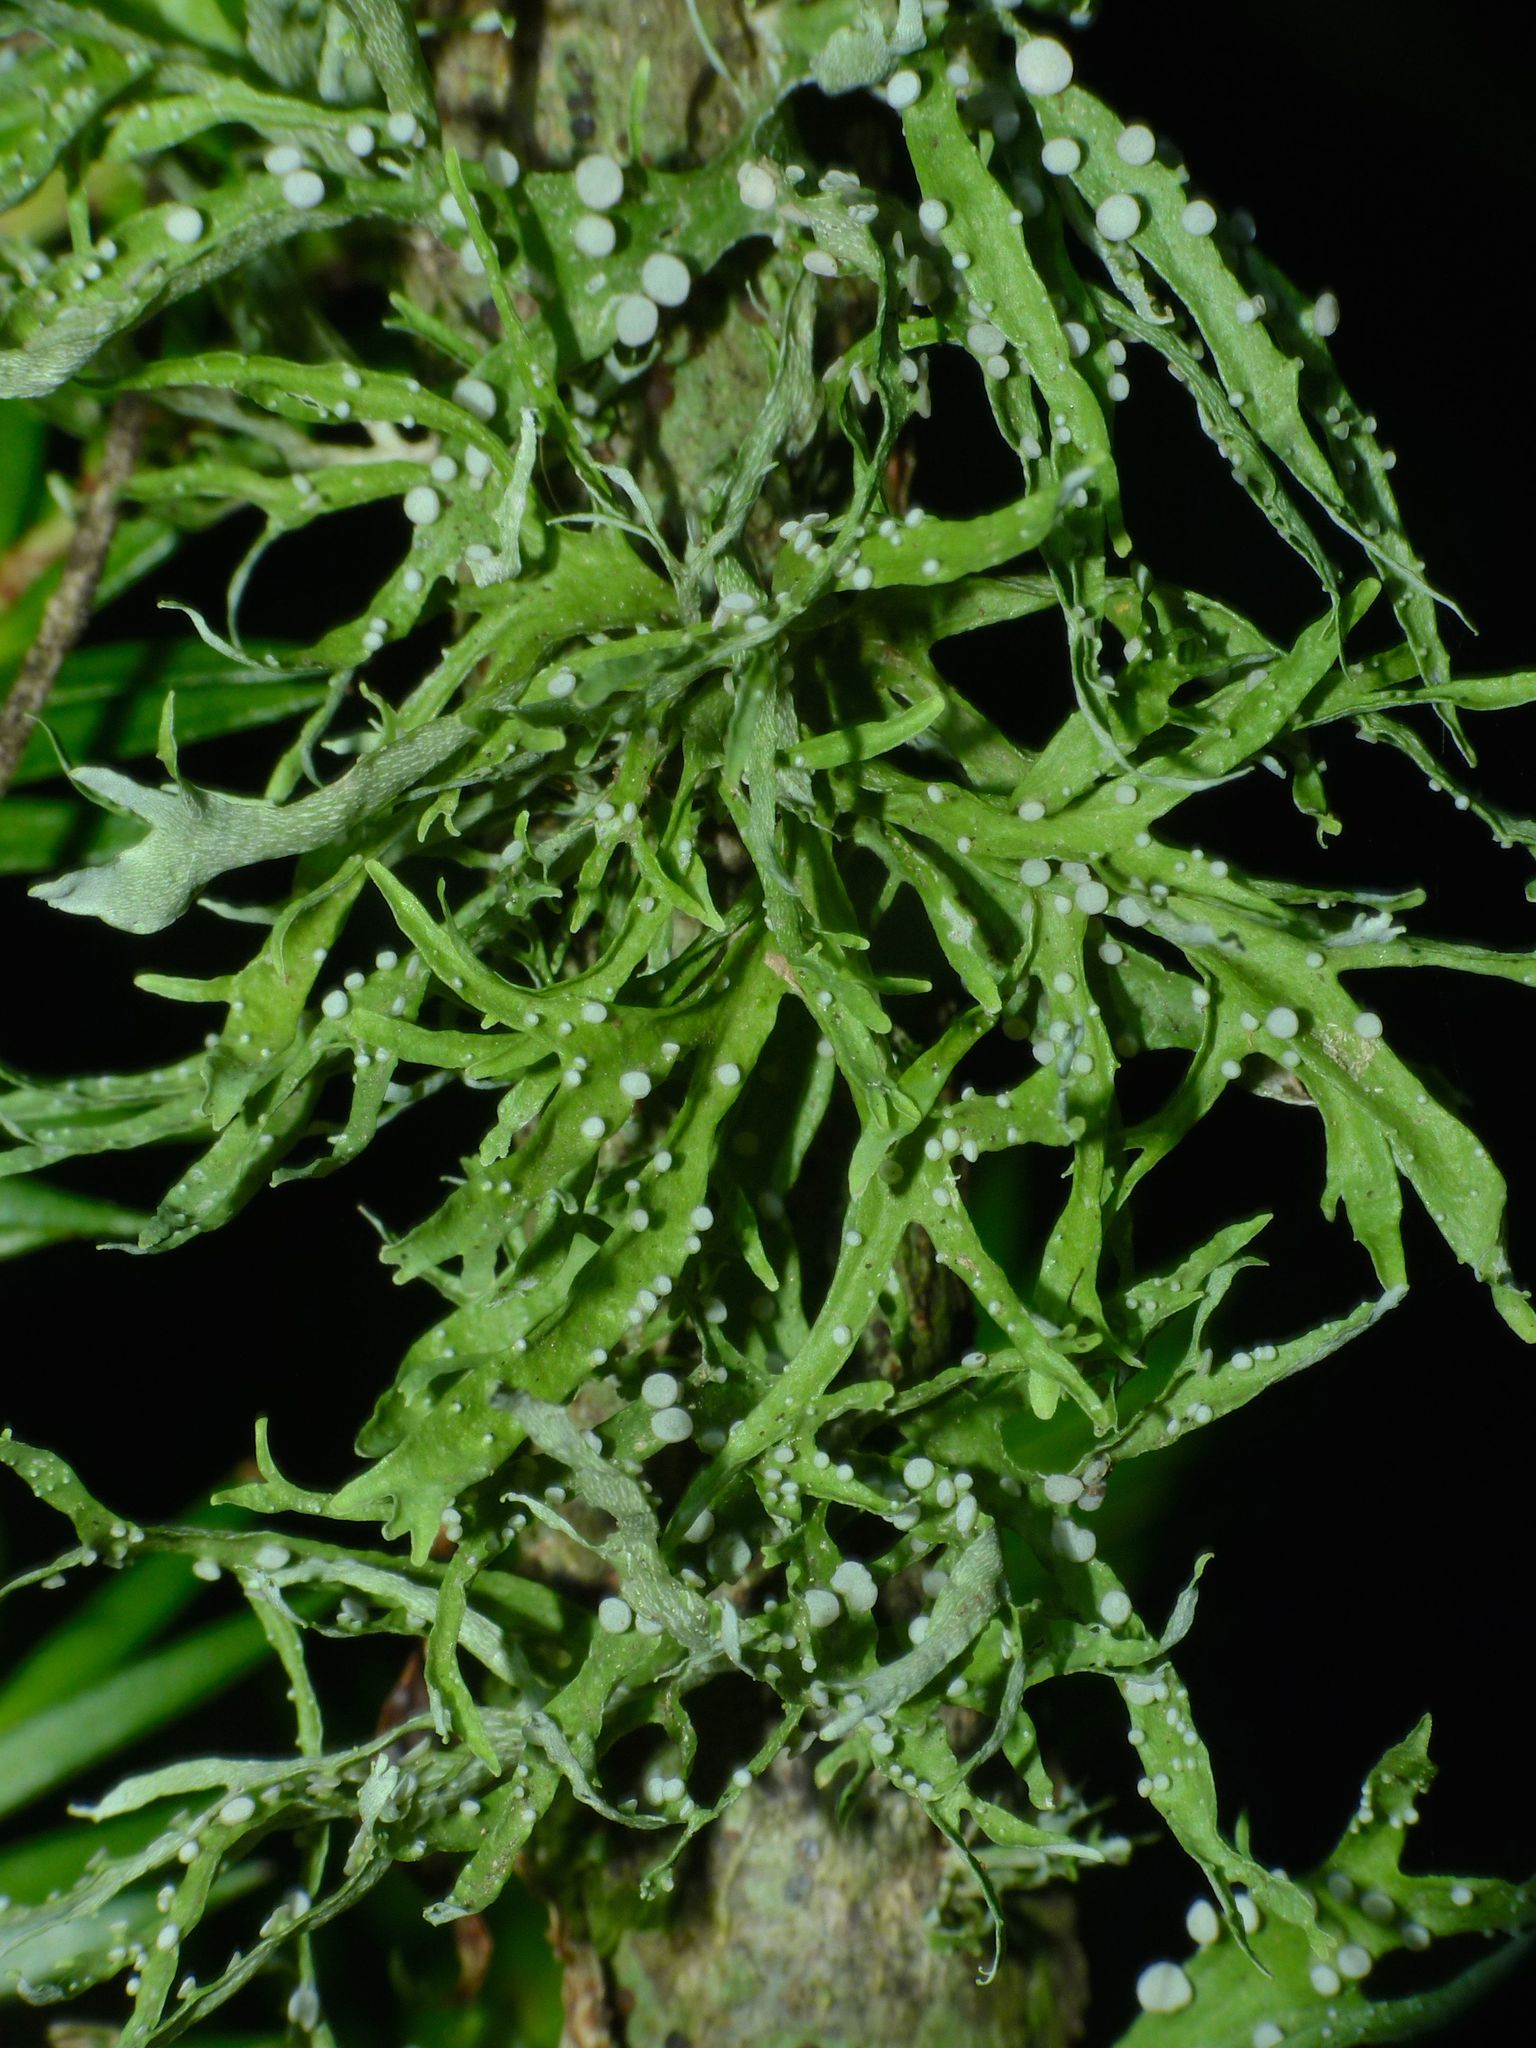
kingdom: Fungi
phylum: Ascomycota
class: Lecanoromycetes
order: Lecanorales
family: Ramalinaceae
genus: Ramalina
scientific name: Ramalina celastri
